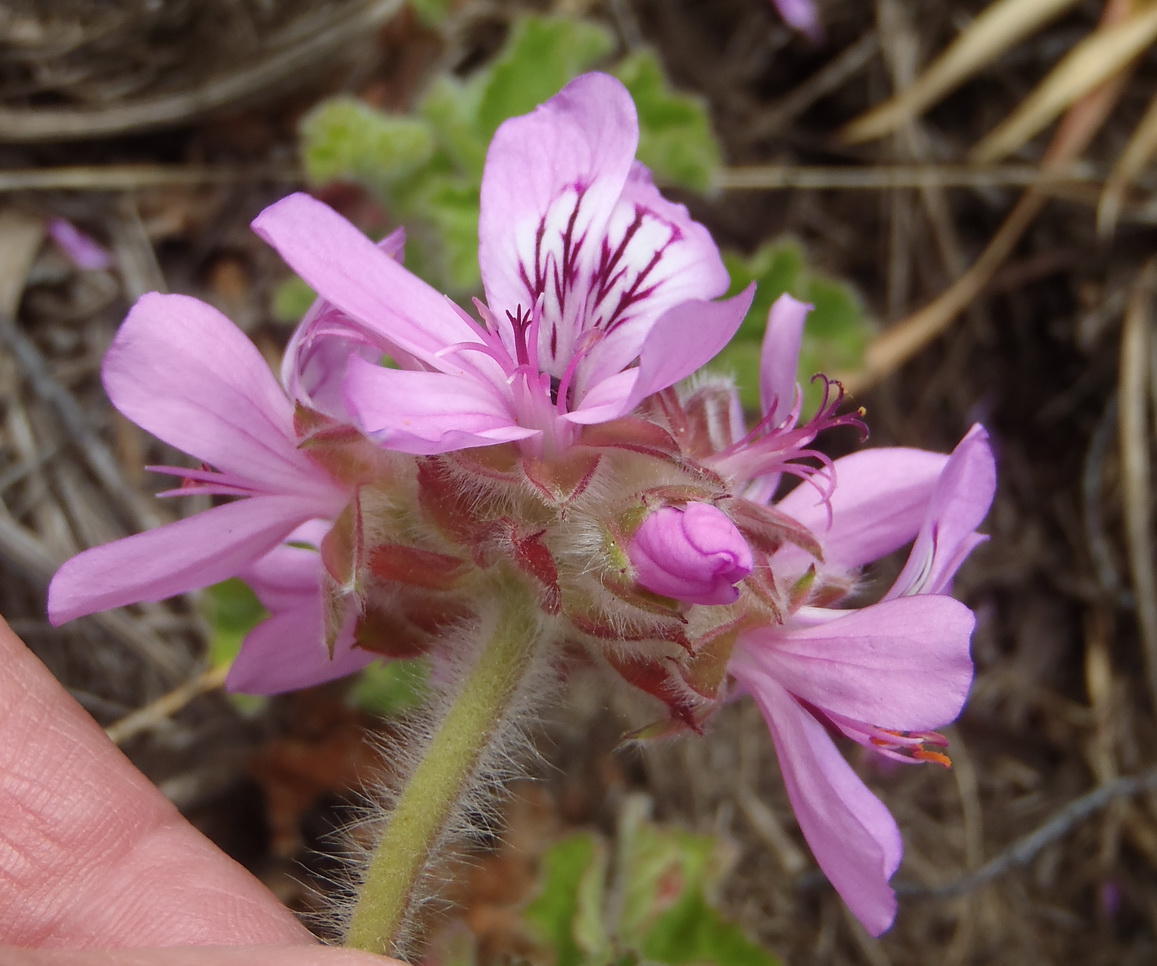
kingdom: Plantae
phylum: Tracheophyta
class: Magnoliopsida
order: Geraniales
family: Geraniaceae
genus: Pelargonium
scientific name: Pelargonium capitatum
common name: Rose scented geranium
